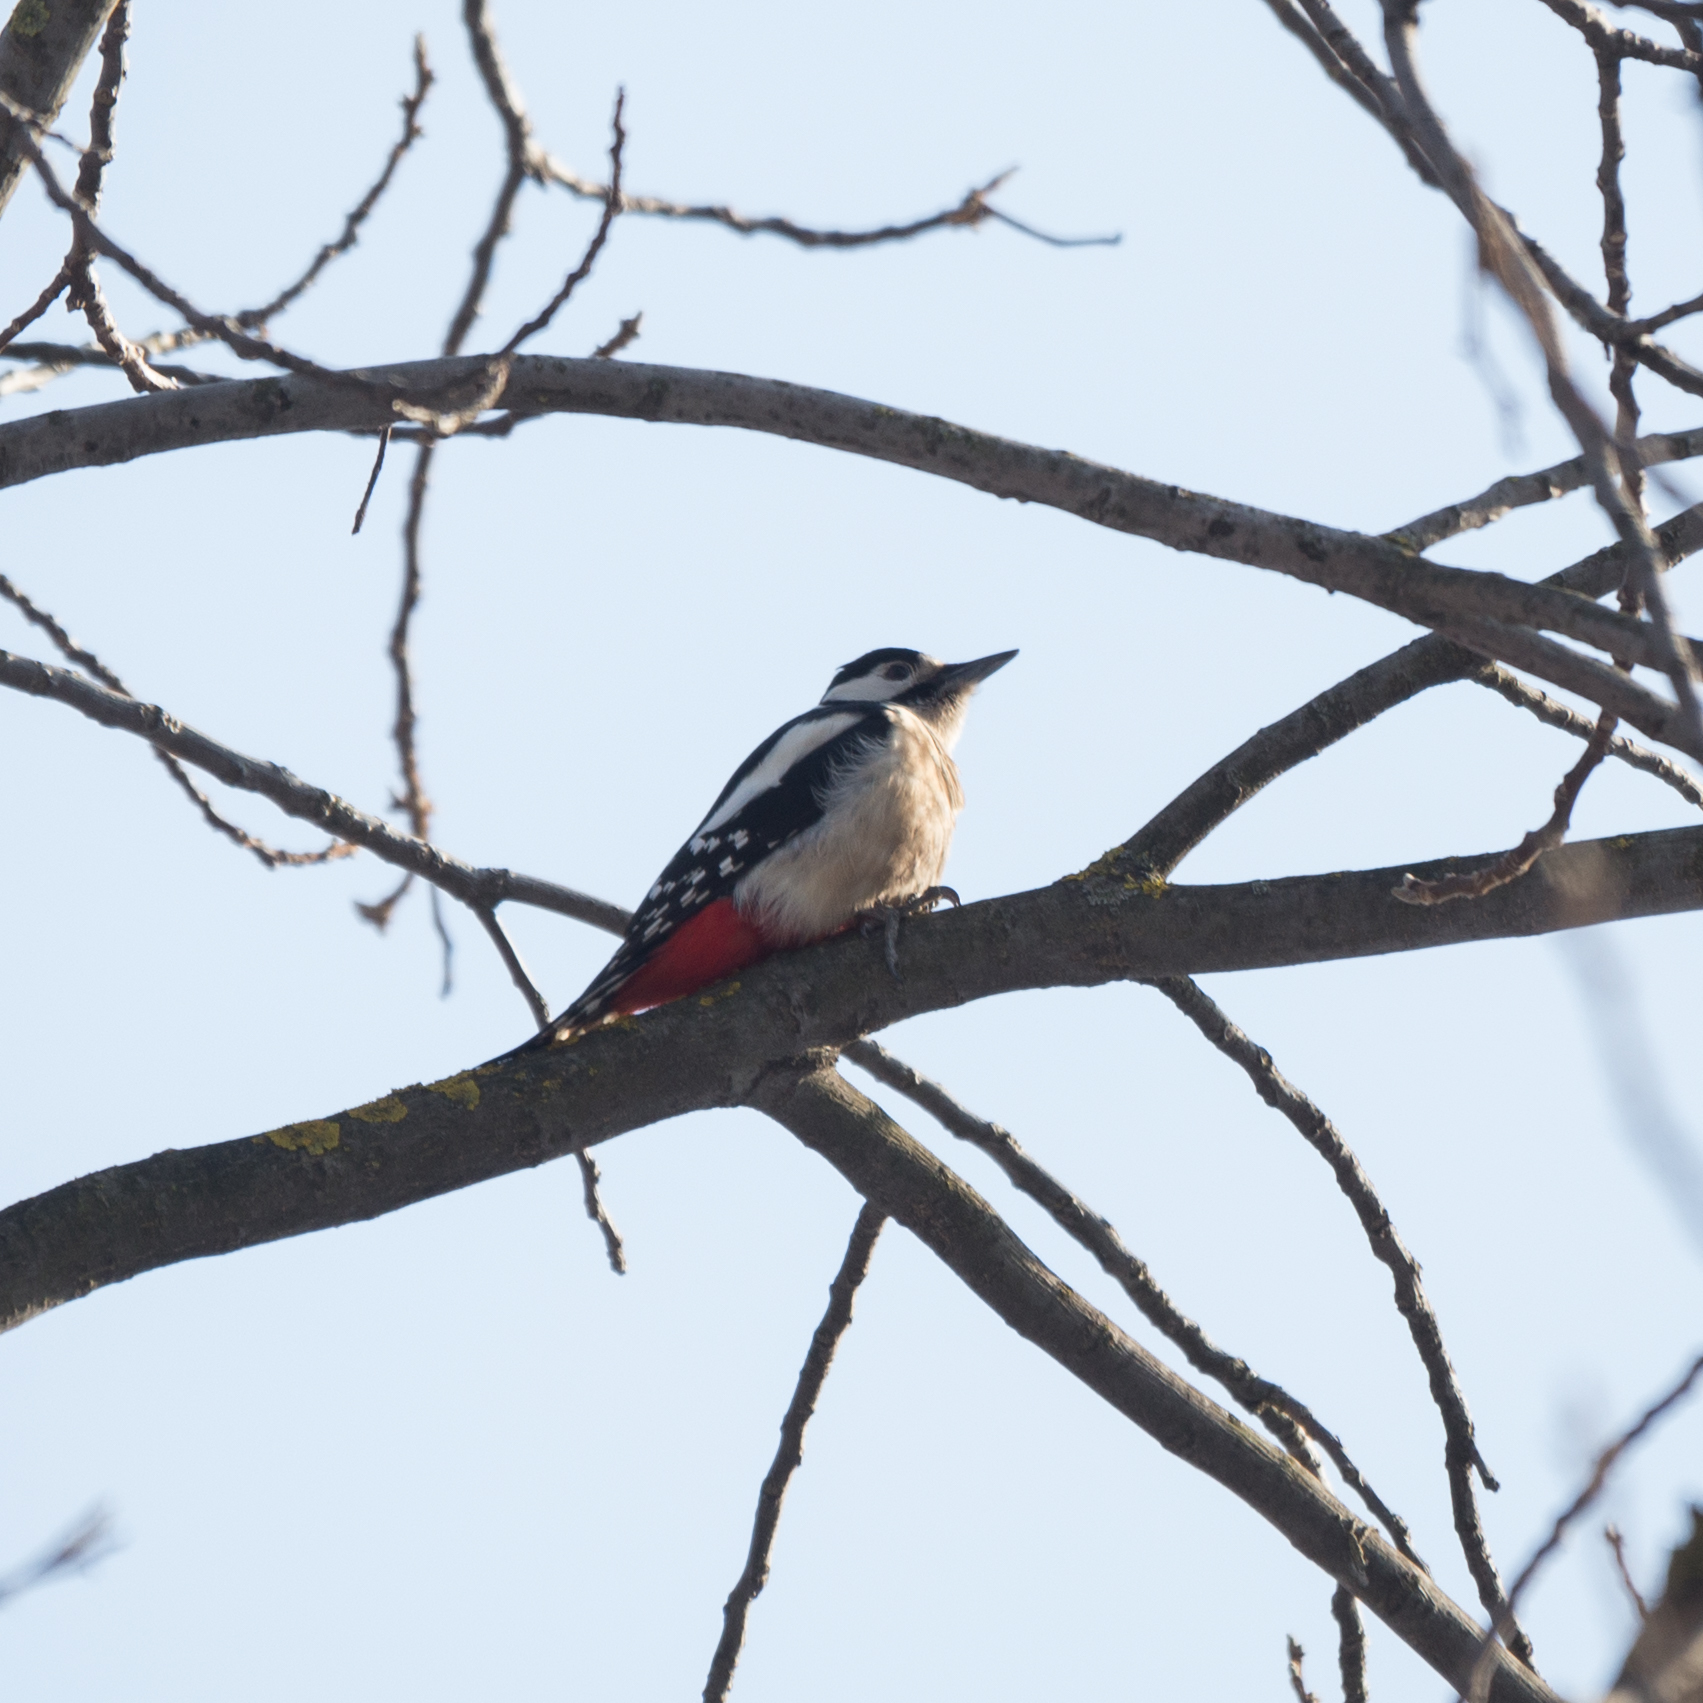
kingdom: Animalia
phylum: Chordata
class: Aves
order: Piciformes
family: Picidae
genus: Dendrocopos
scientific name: Dendrocopos major
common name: Great spotted woodpecker
